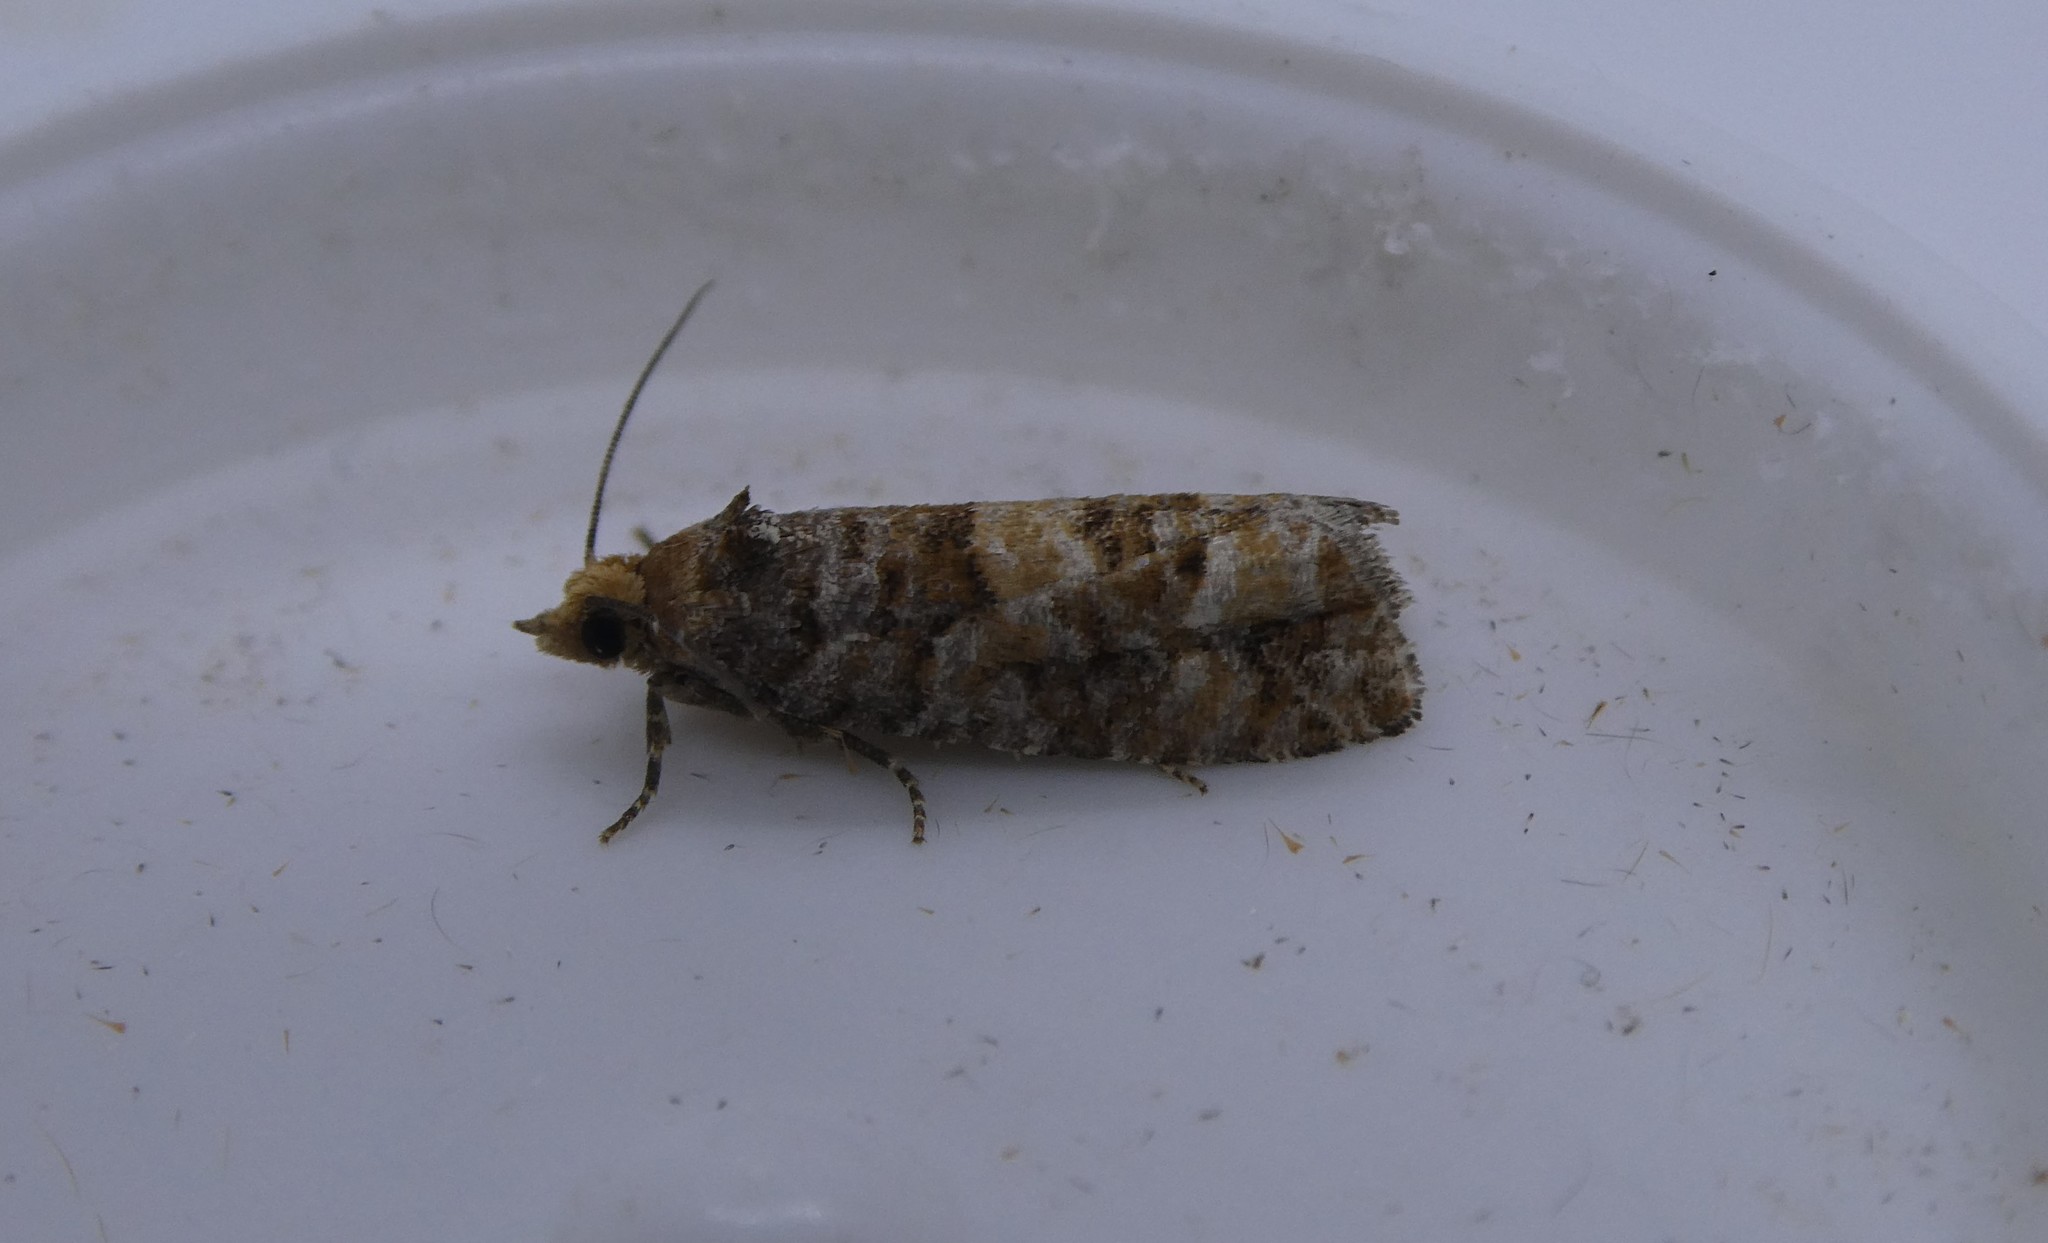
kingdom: Animalia
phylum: Arthropoda
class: Insecta
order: Lepidoptera
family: Tortricidae
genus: Eucopina
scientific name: Eucopina tocullionana
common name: White pinecone borer moth
